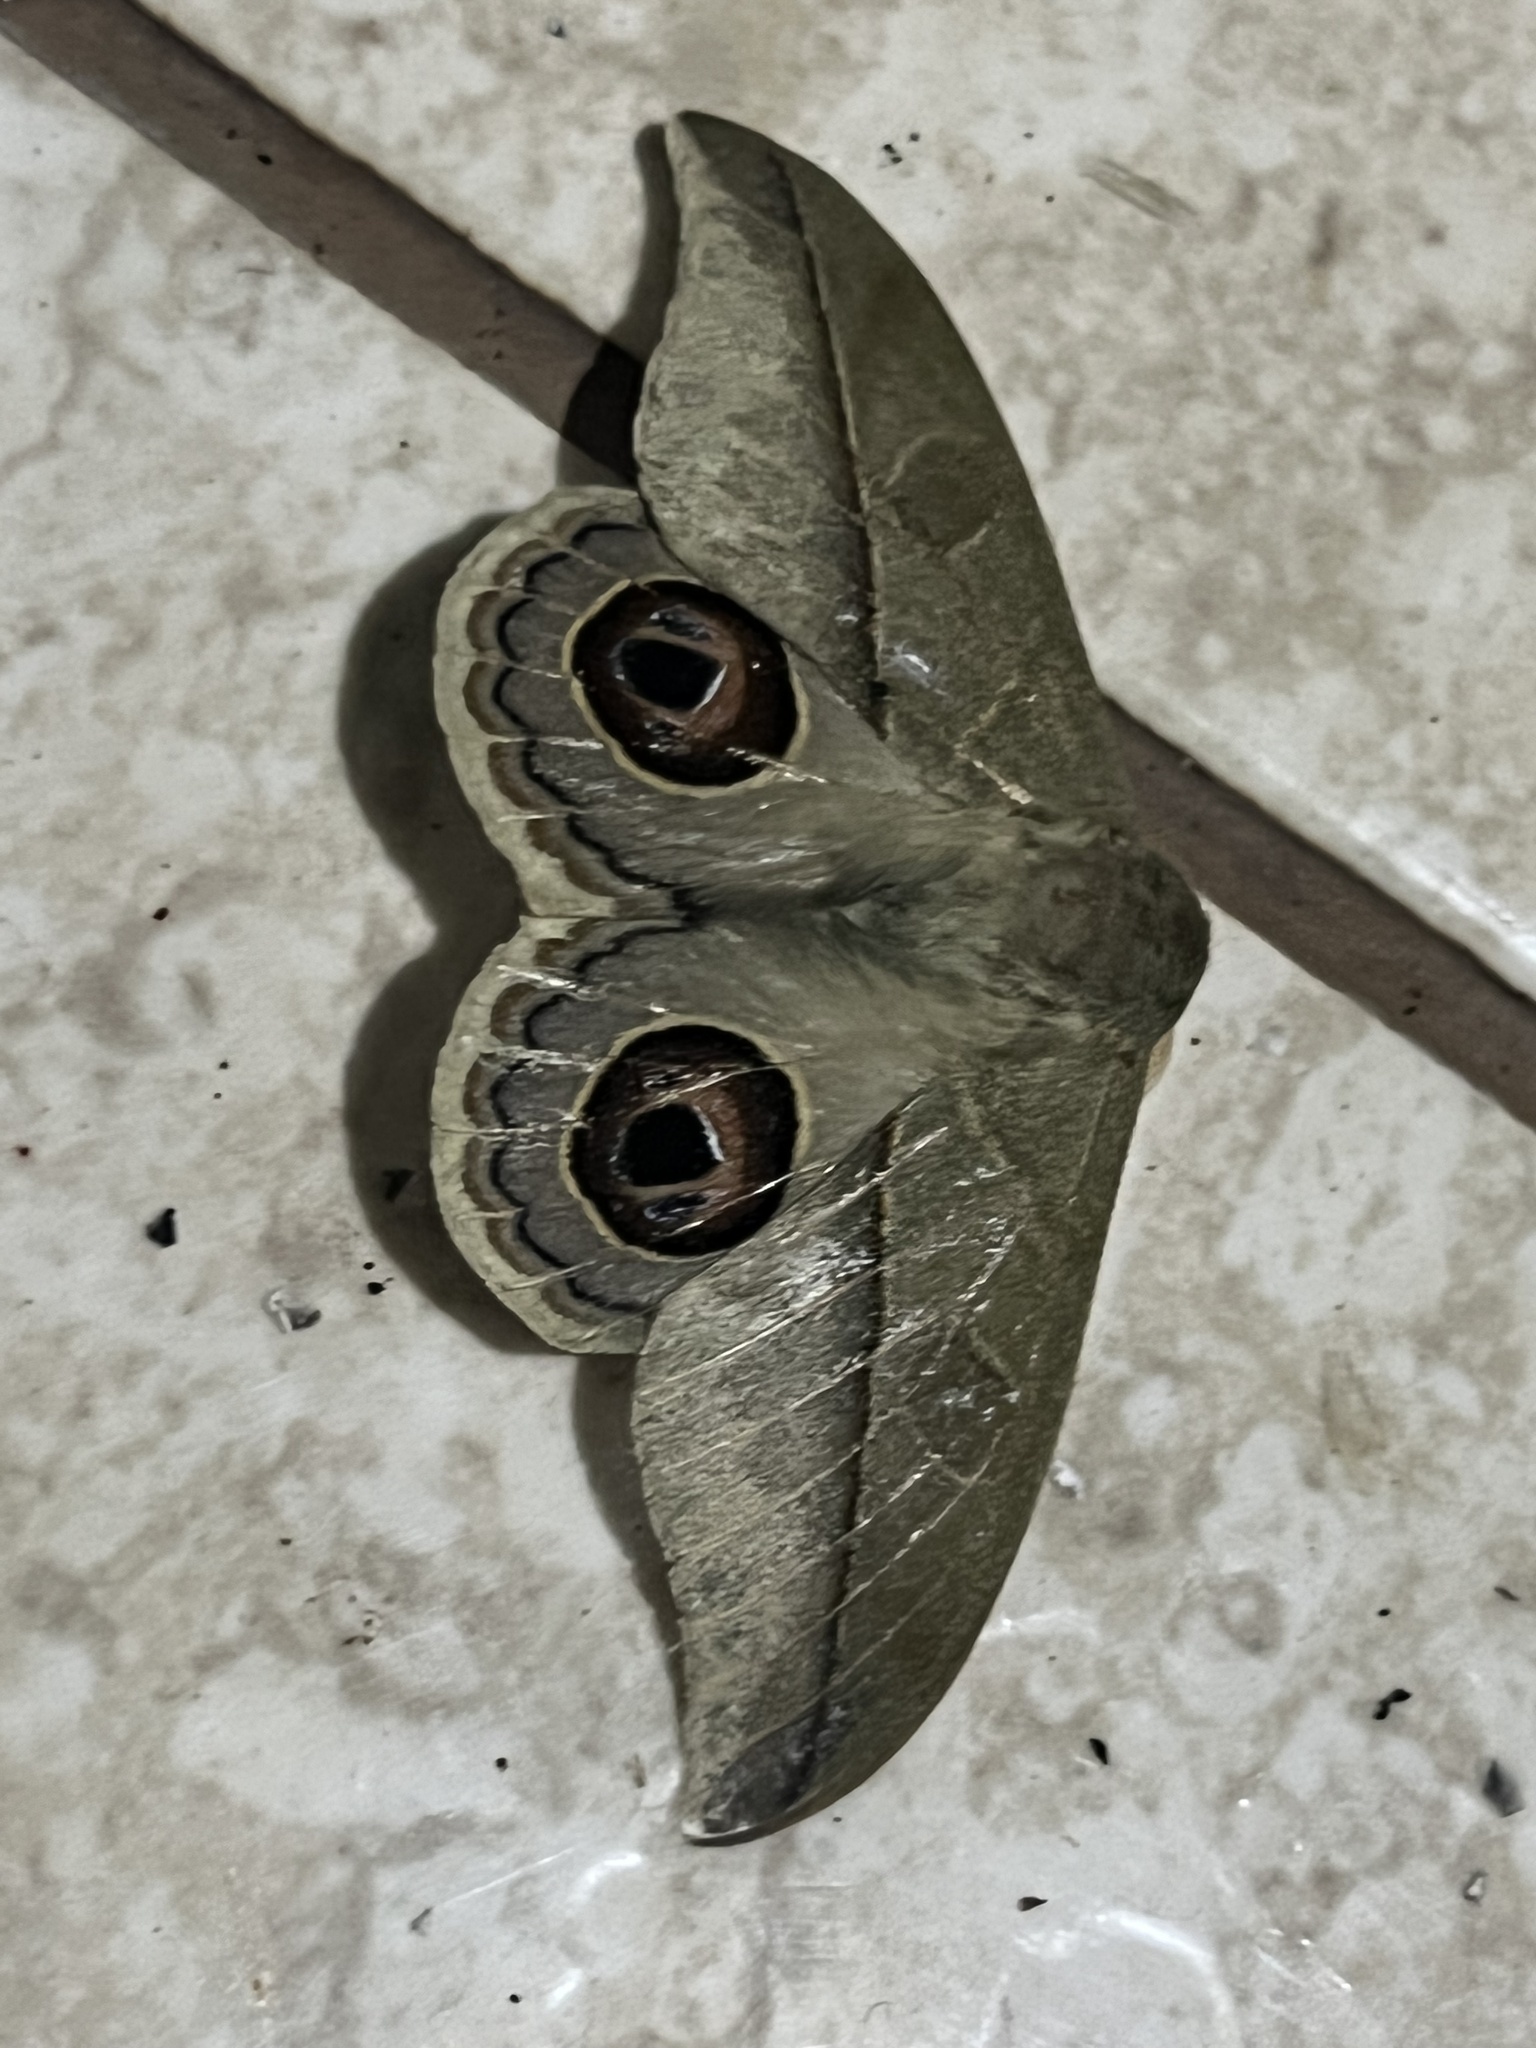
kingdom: Animalia
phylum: Arthropoda
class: Insecta
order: Lepidoptera
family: Saturniidae
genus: Leucanella
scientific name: Leucanella memusae
